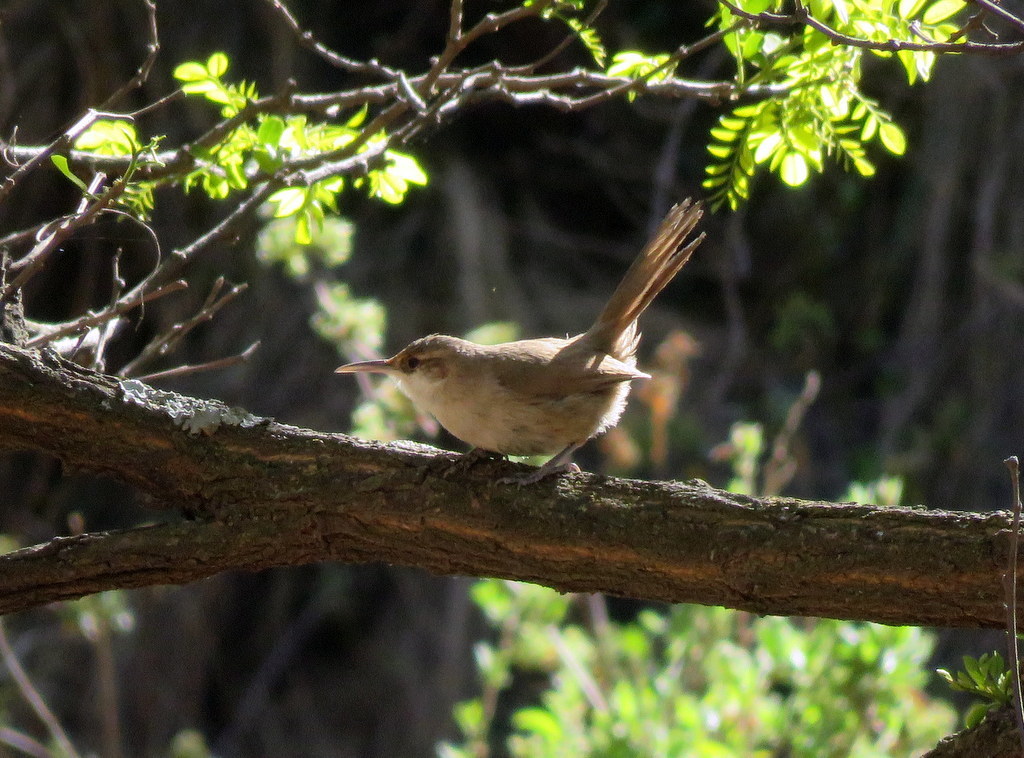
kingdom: Animalia
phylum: Chordata
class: Aves
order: Passeriformes
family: Furnariidae
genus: Upucerthia
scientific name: Upucerthia certhioides
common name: Chaco earthcreeper
